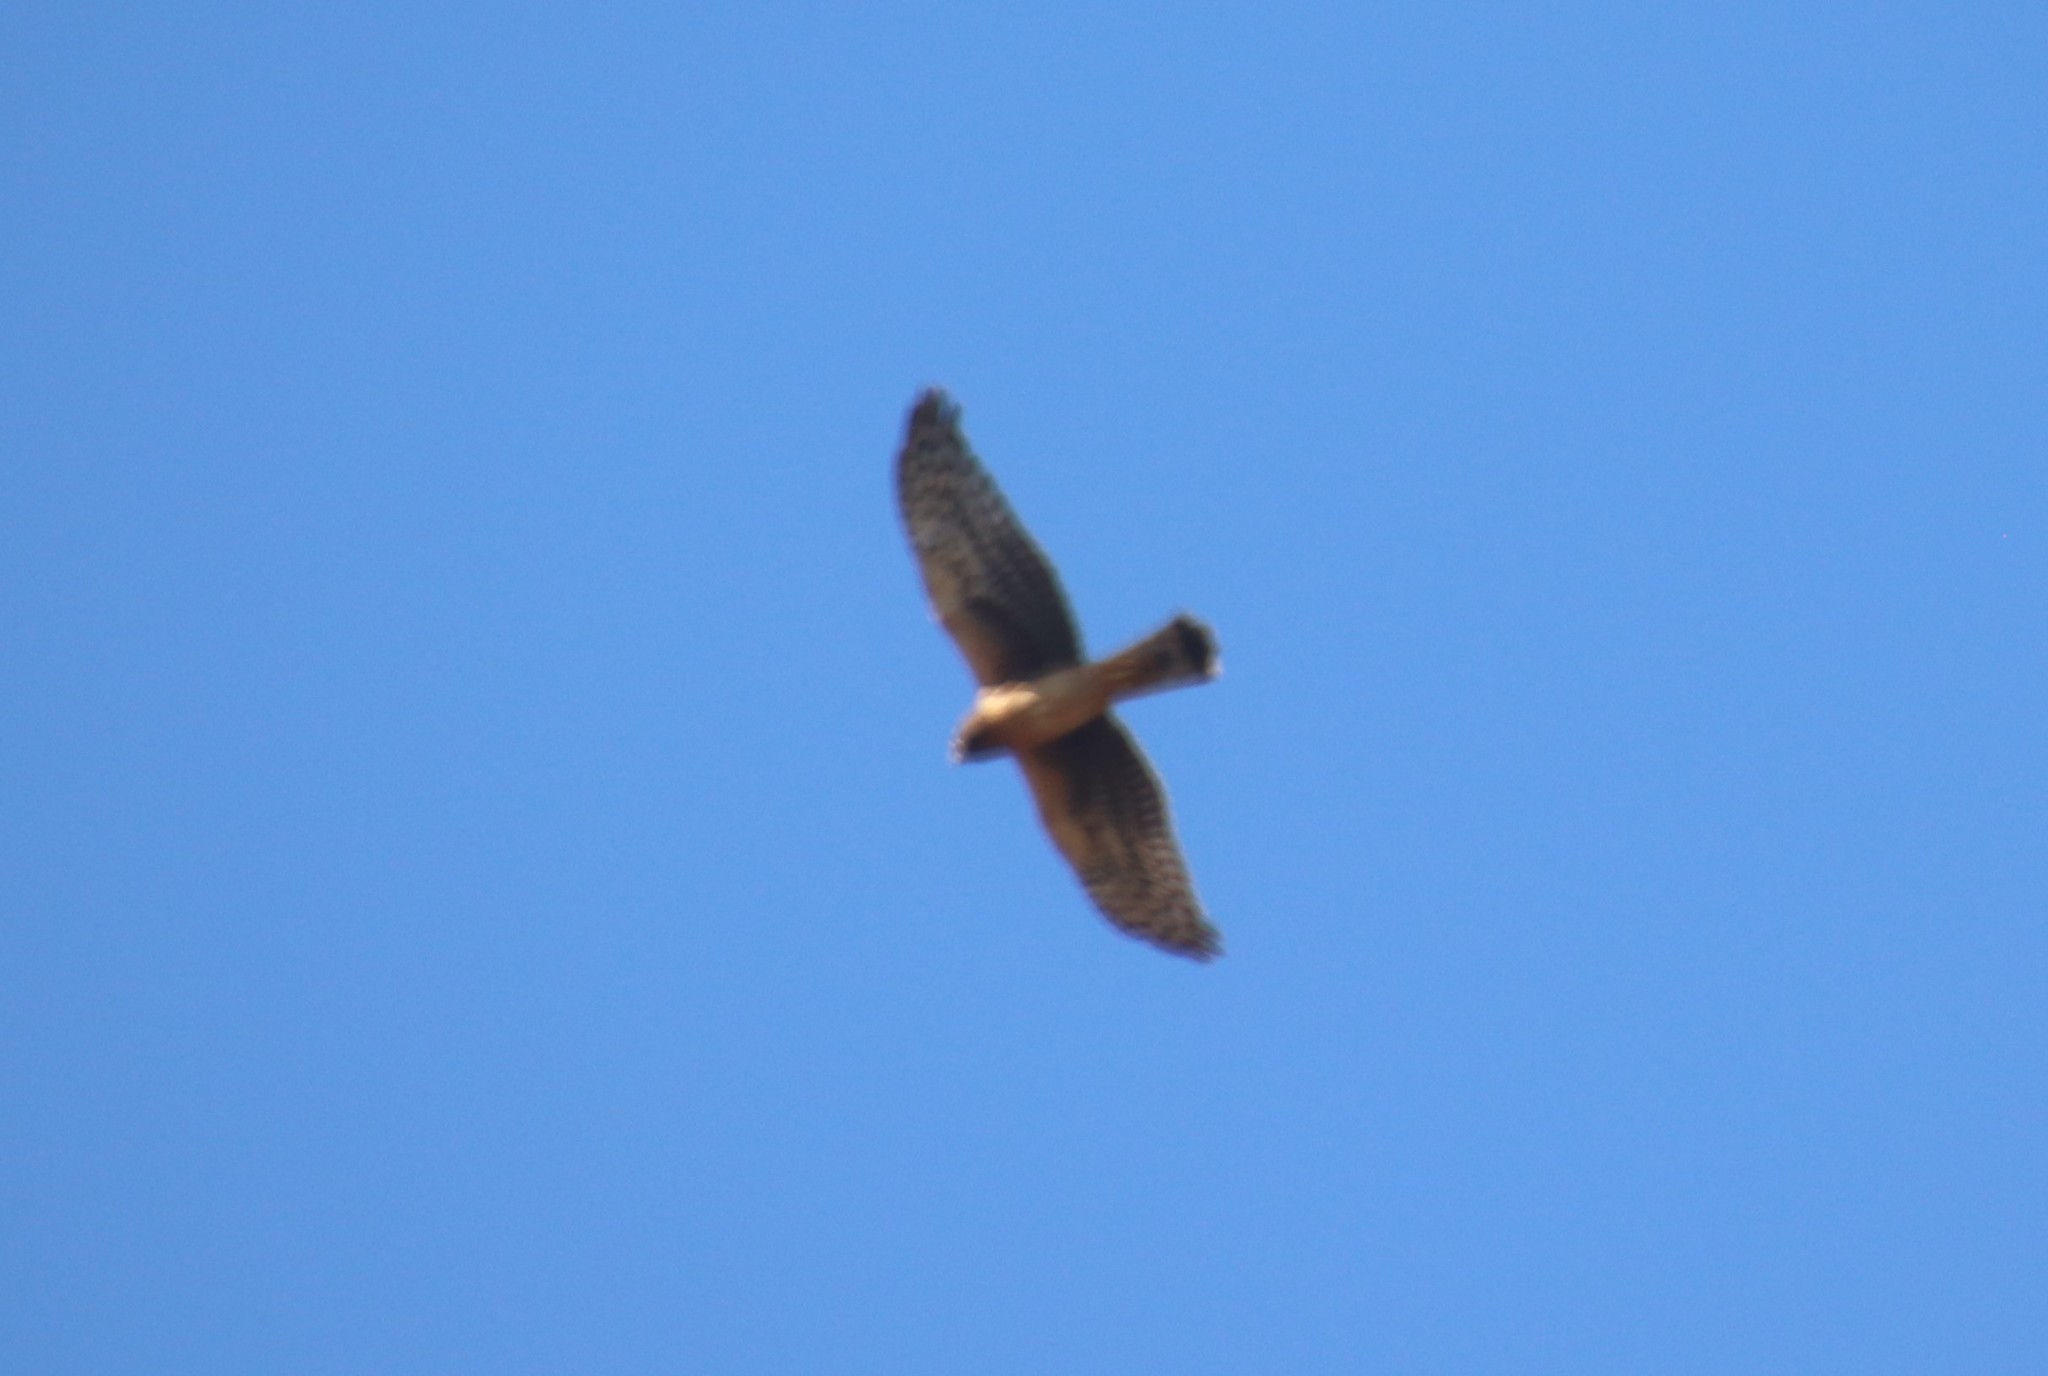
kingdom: Animalia
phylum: Chordata
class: Aves
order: Accipitriformes
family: Accipitridae
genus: Circus
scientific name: Circus cyaneus
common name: Hen harrier
